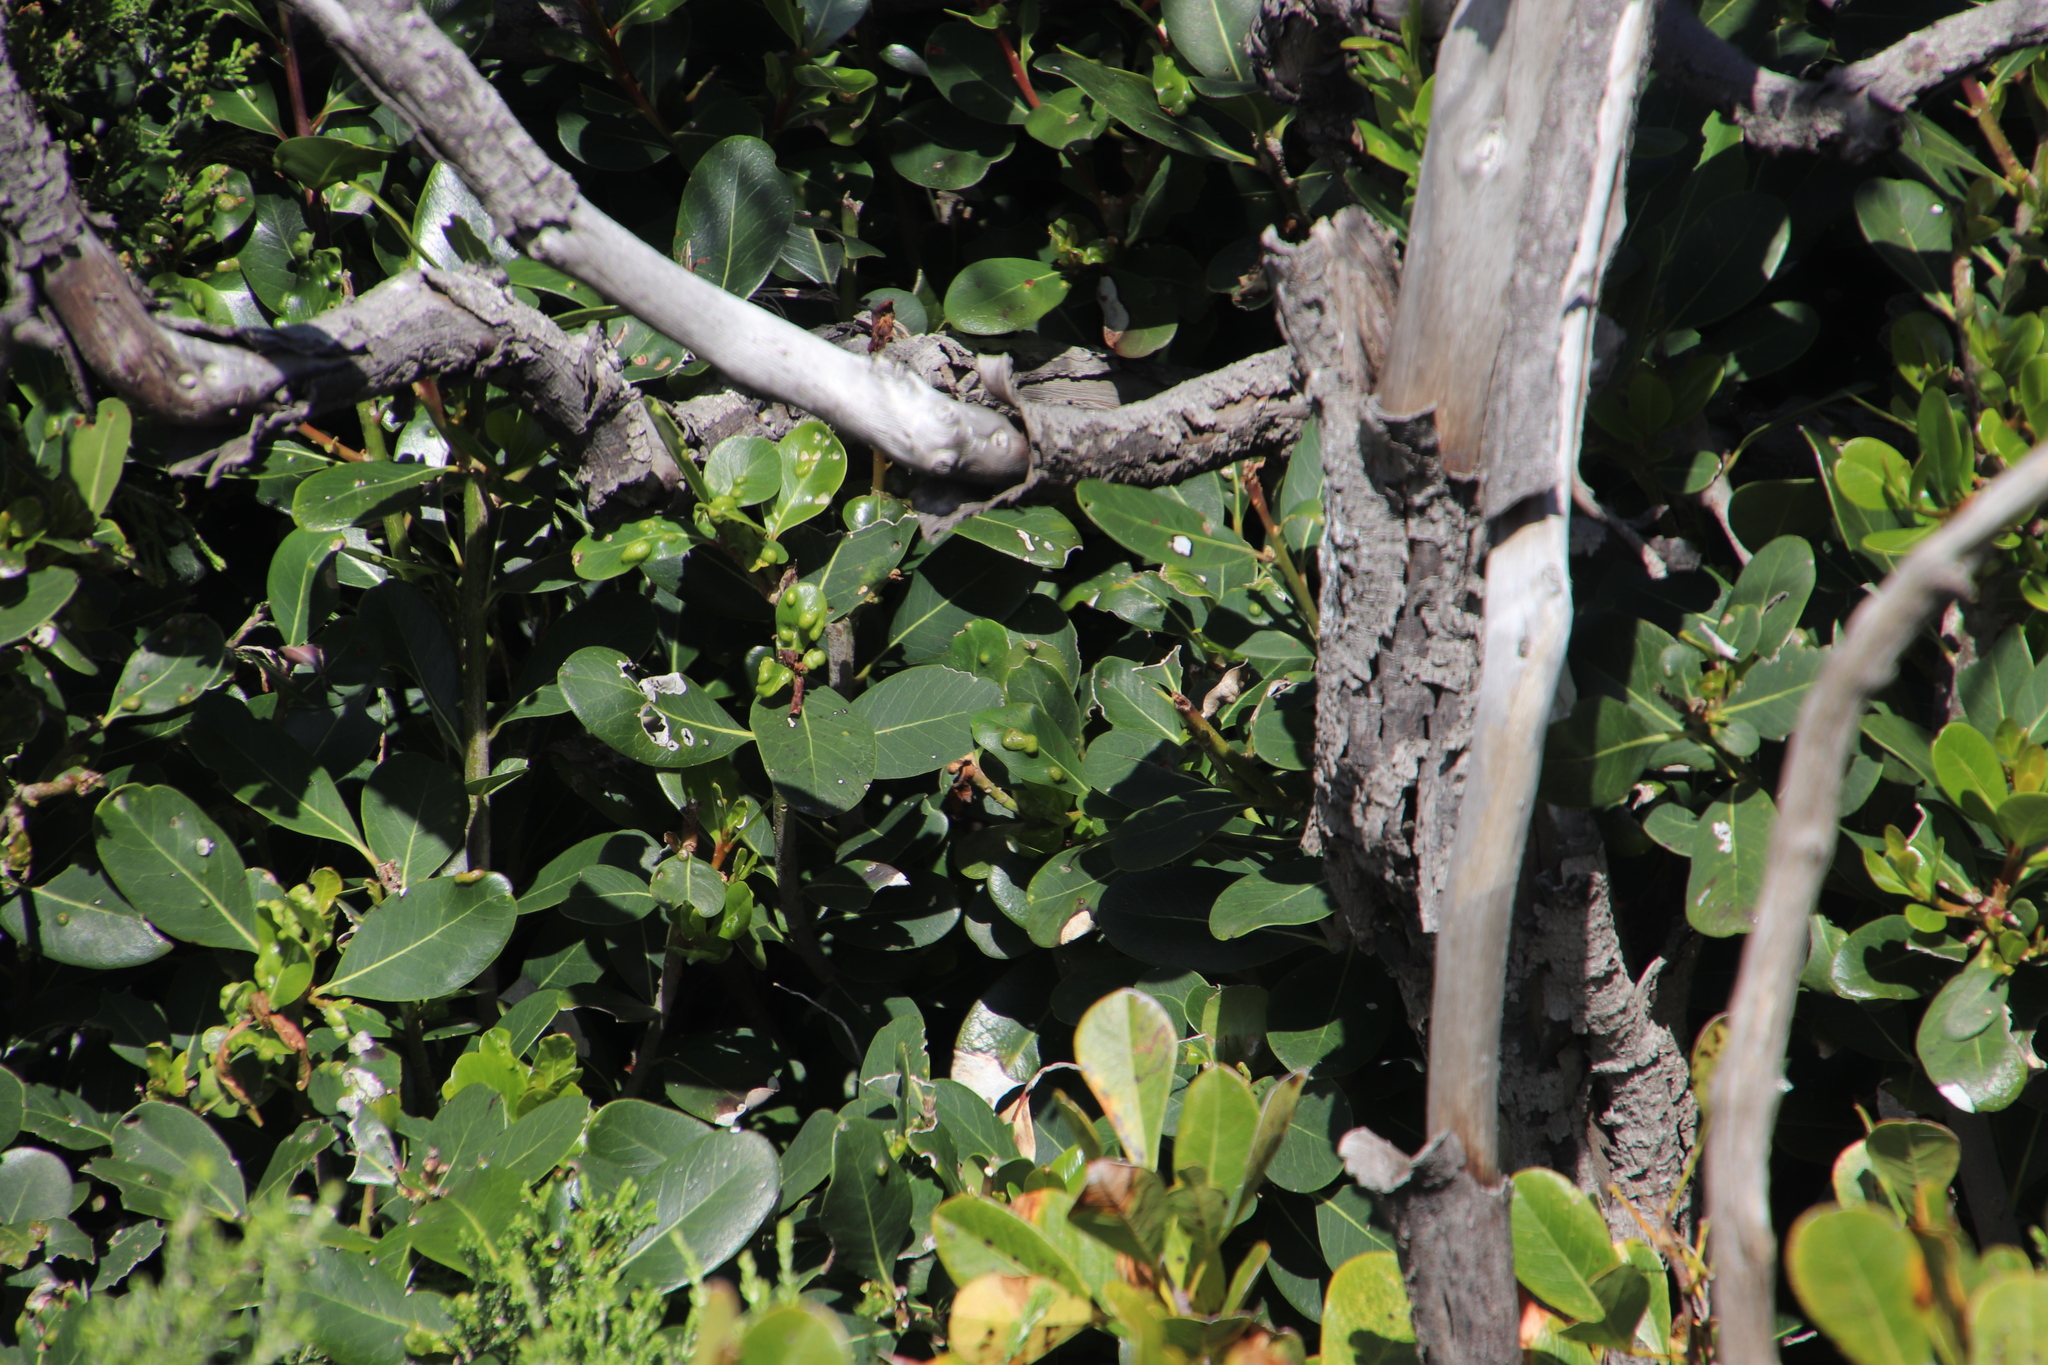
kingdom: Plantae
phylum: Tracheophyta
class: Magnoliopsida
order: Ericales
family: Sapotaceae
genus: Sideroxylon
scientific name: Sideroxylon inerme
